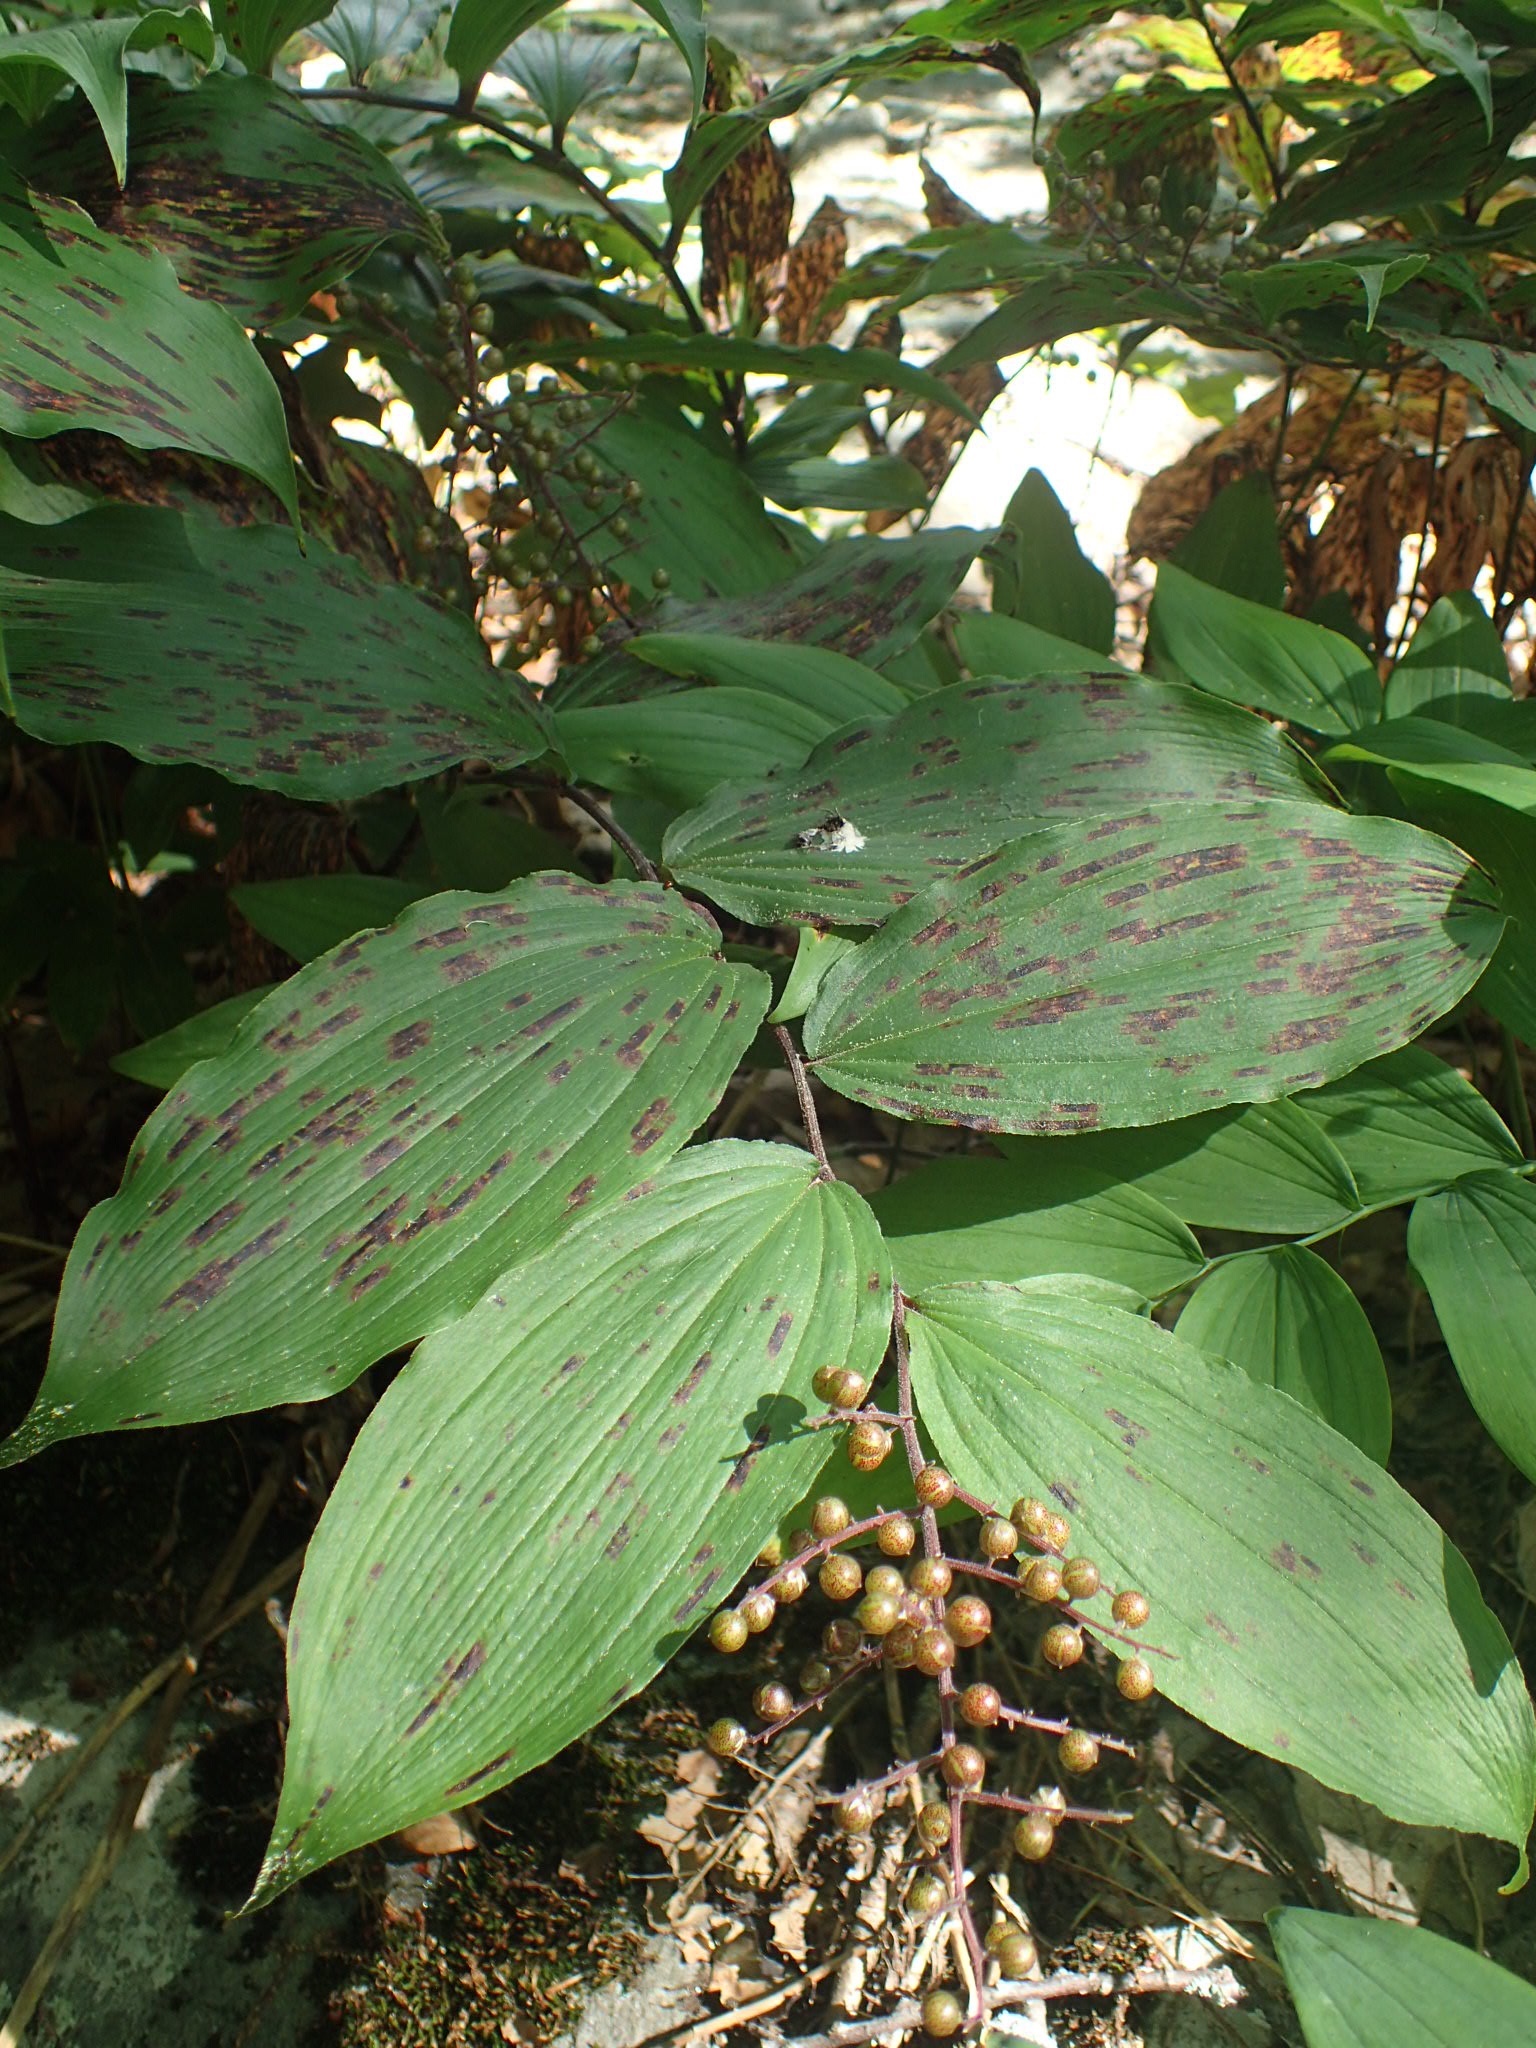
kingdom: Plantae
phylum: Tracheophyta
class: Liliopsida
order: Asparagales
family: Asparagaceae
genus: Maianthemum
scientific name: Maianthemum racemosum
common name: False spikenard
